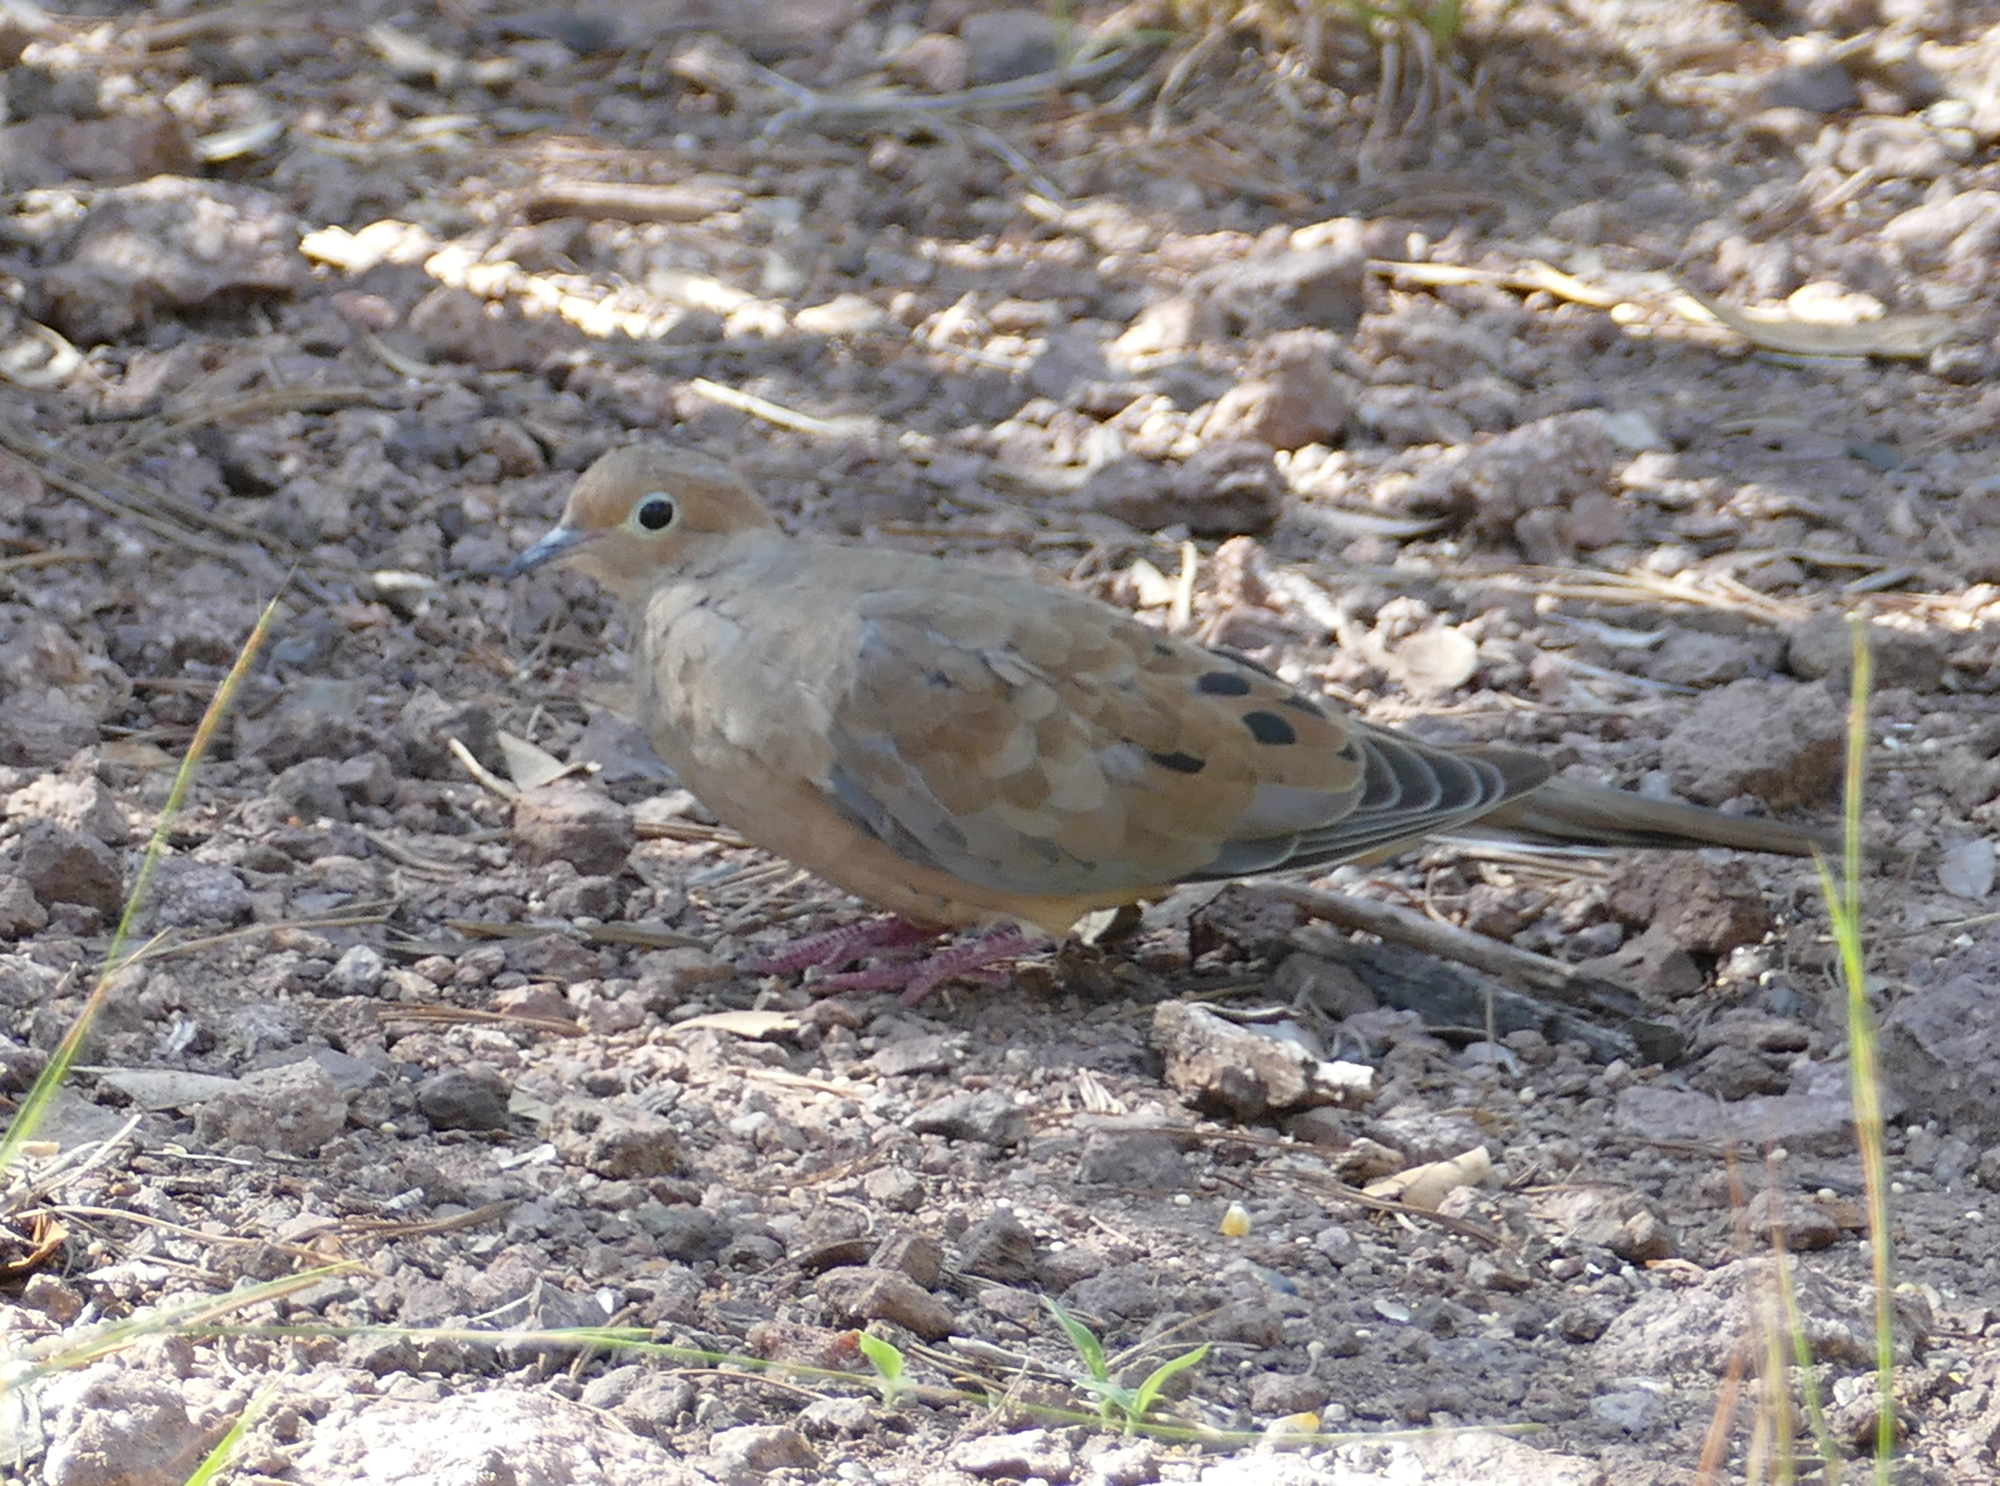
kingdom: Animalia
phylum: Chordata
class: Aves
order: Columbiformes
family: Columbidae
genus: Zenaida
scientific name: Zenaida macroura
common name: Mourning dove
